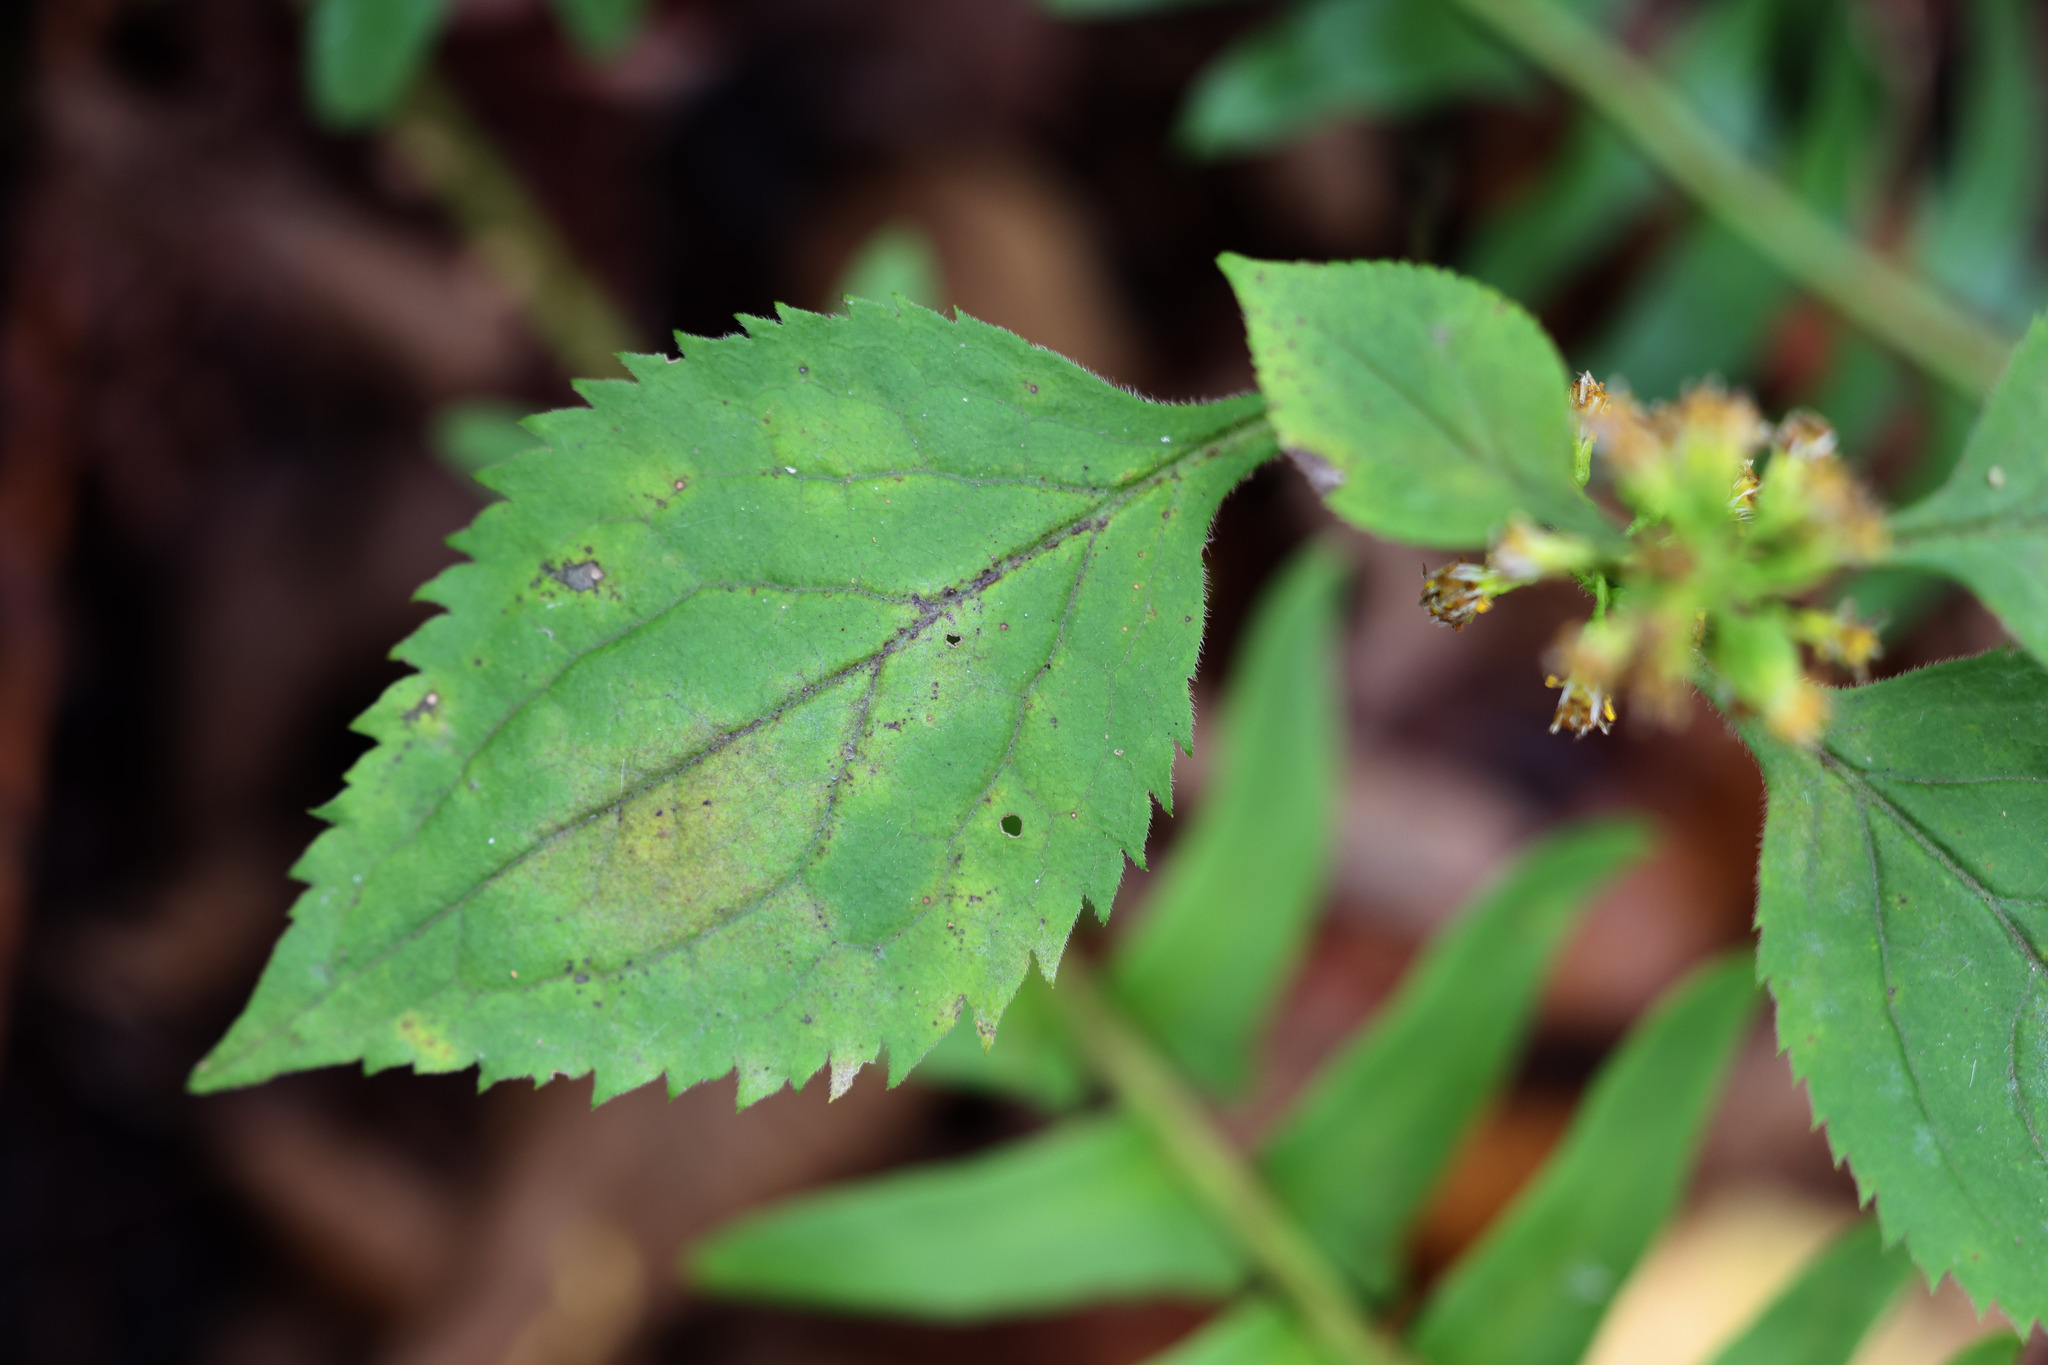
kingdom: Plantae
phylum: Tracheophyta
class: Magnoliopsida
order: Asterales
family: Asteraceae
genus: Solidago
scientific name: Solidago flexicaulis
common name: Zig-zag goldenrod
